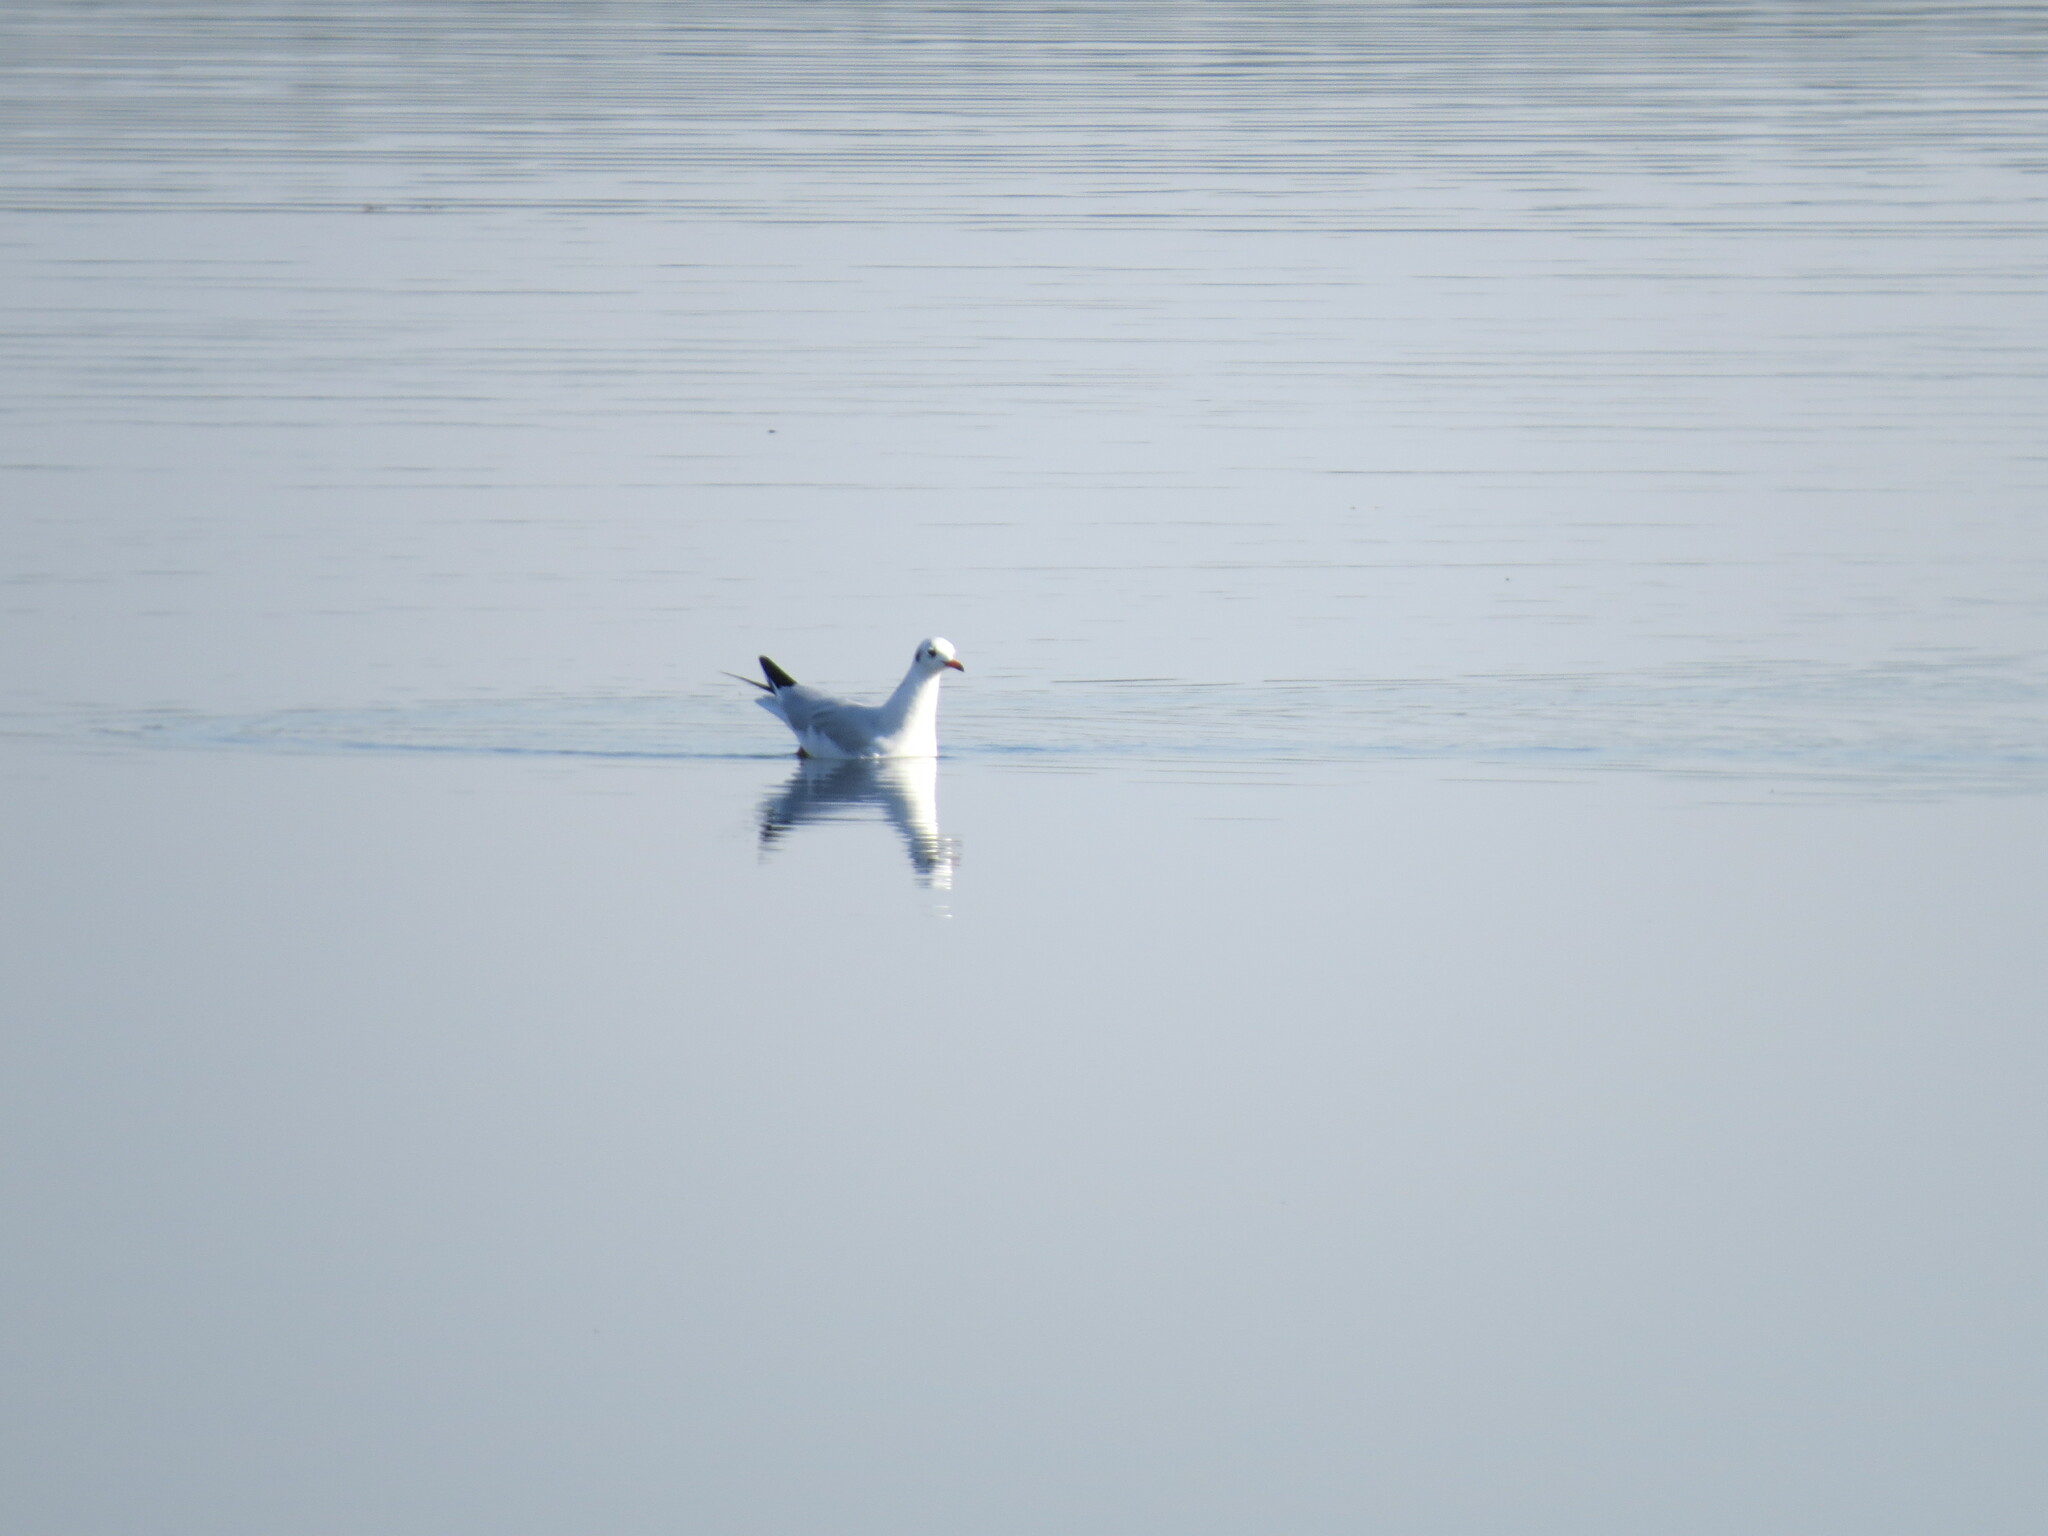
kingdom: Animalia
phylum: Chordata
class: Aves
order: Charadriiformes
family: Laridae
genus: Chroicocephalus
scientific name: Chroicocephalus ridibundus
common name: Black-headed gull
